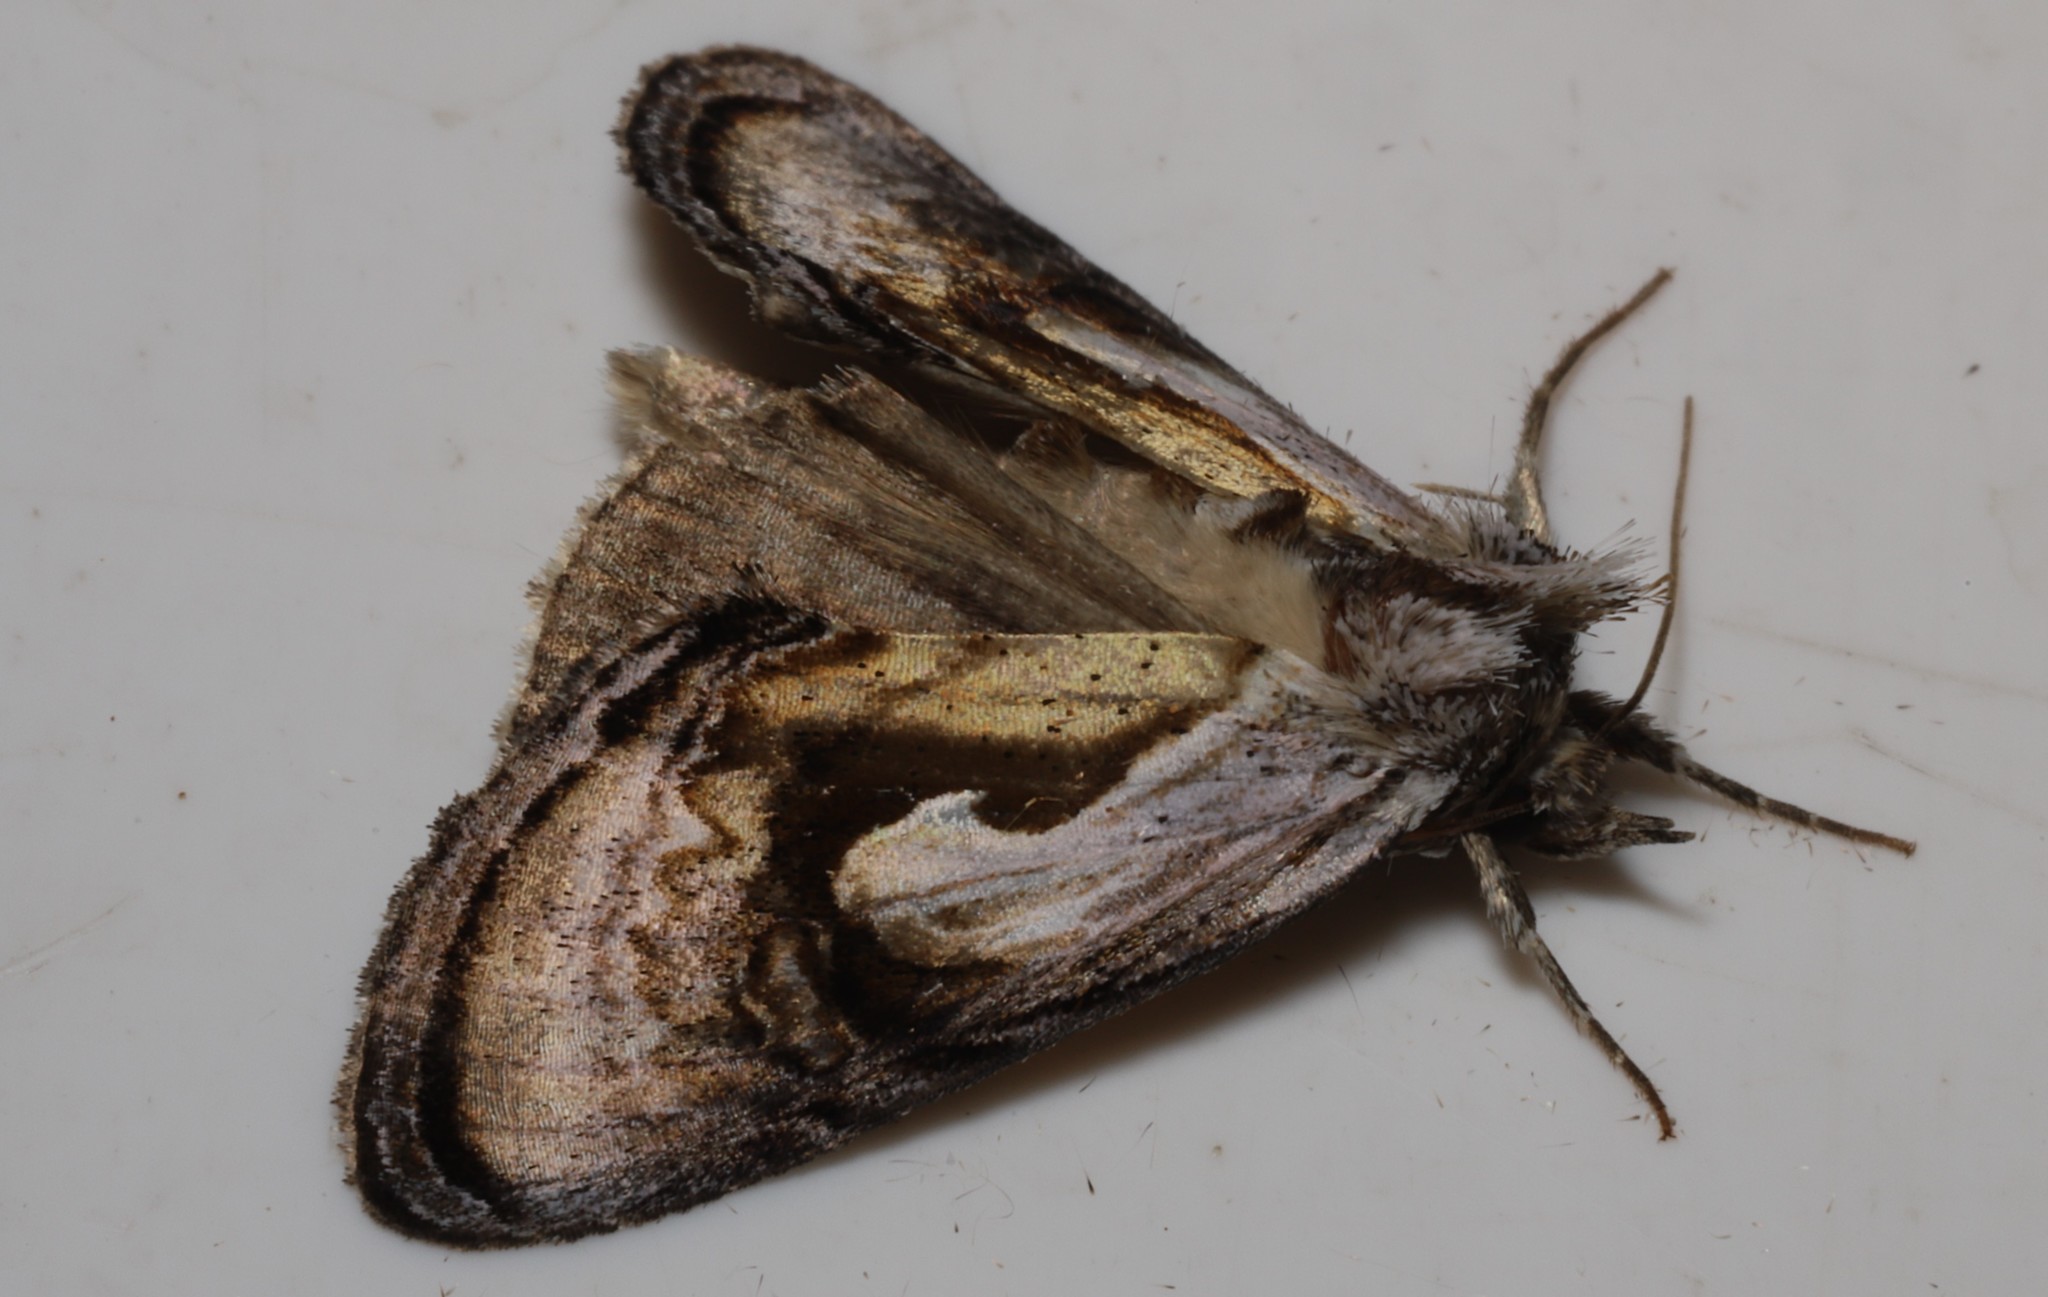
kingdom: Animalia
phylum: Arthropoda
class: Insecta
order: Lepidoptera
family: Noctuidae
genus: Chrysanympha
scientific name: Chrysanympha formosa
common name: Formosa looper moth
